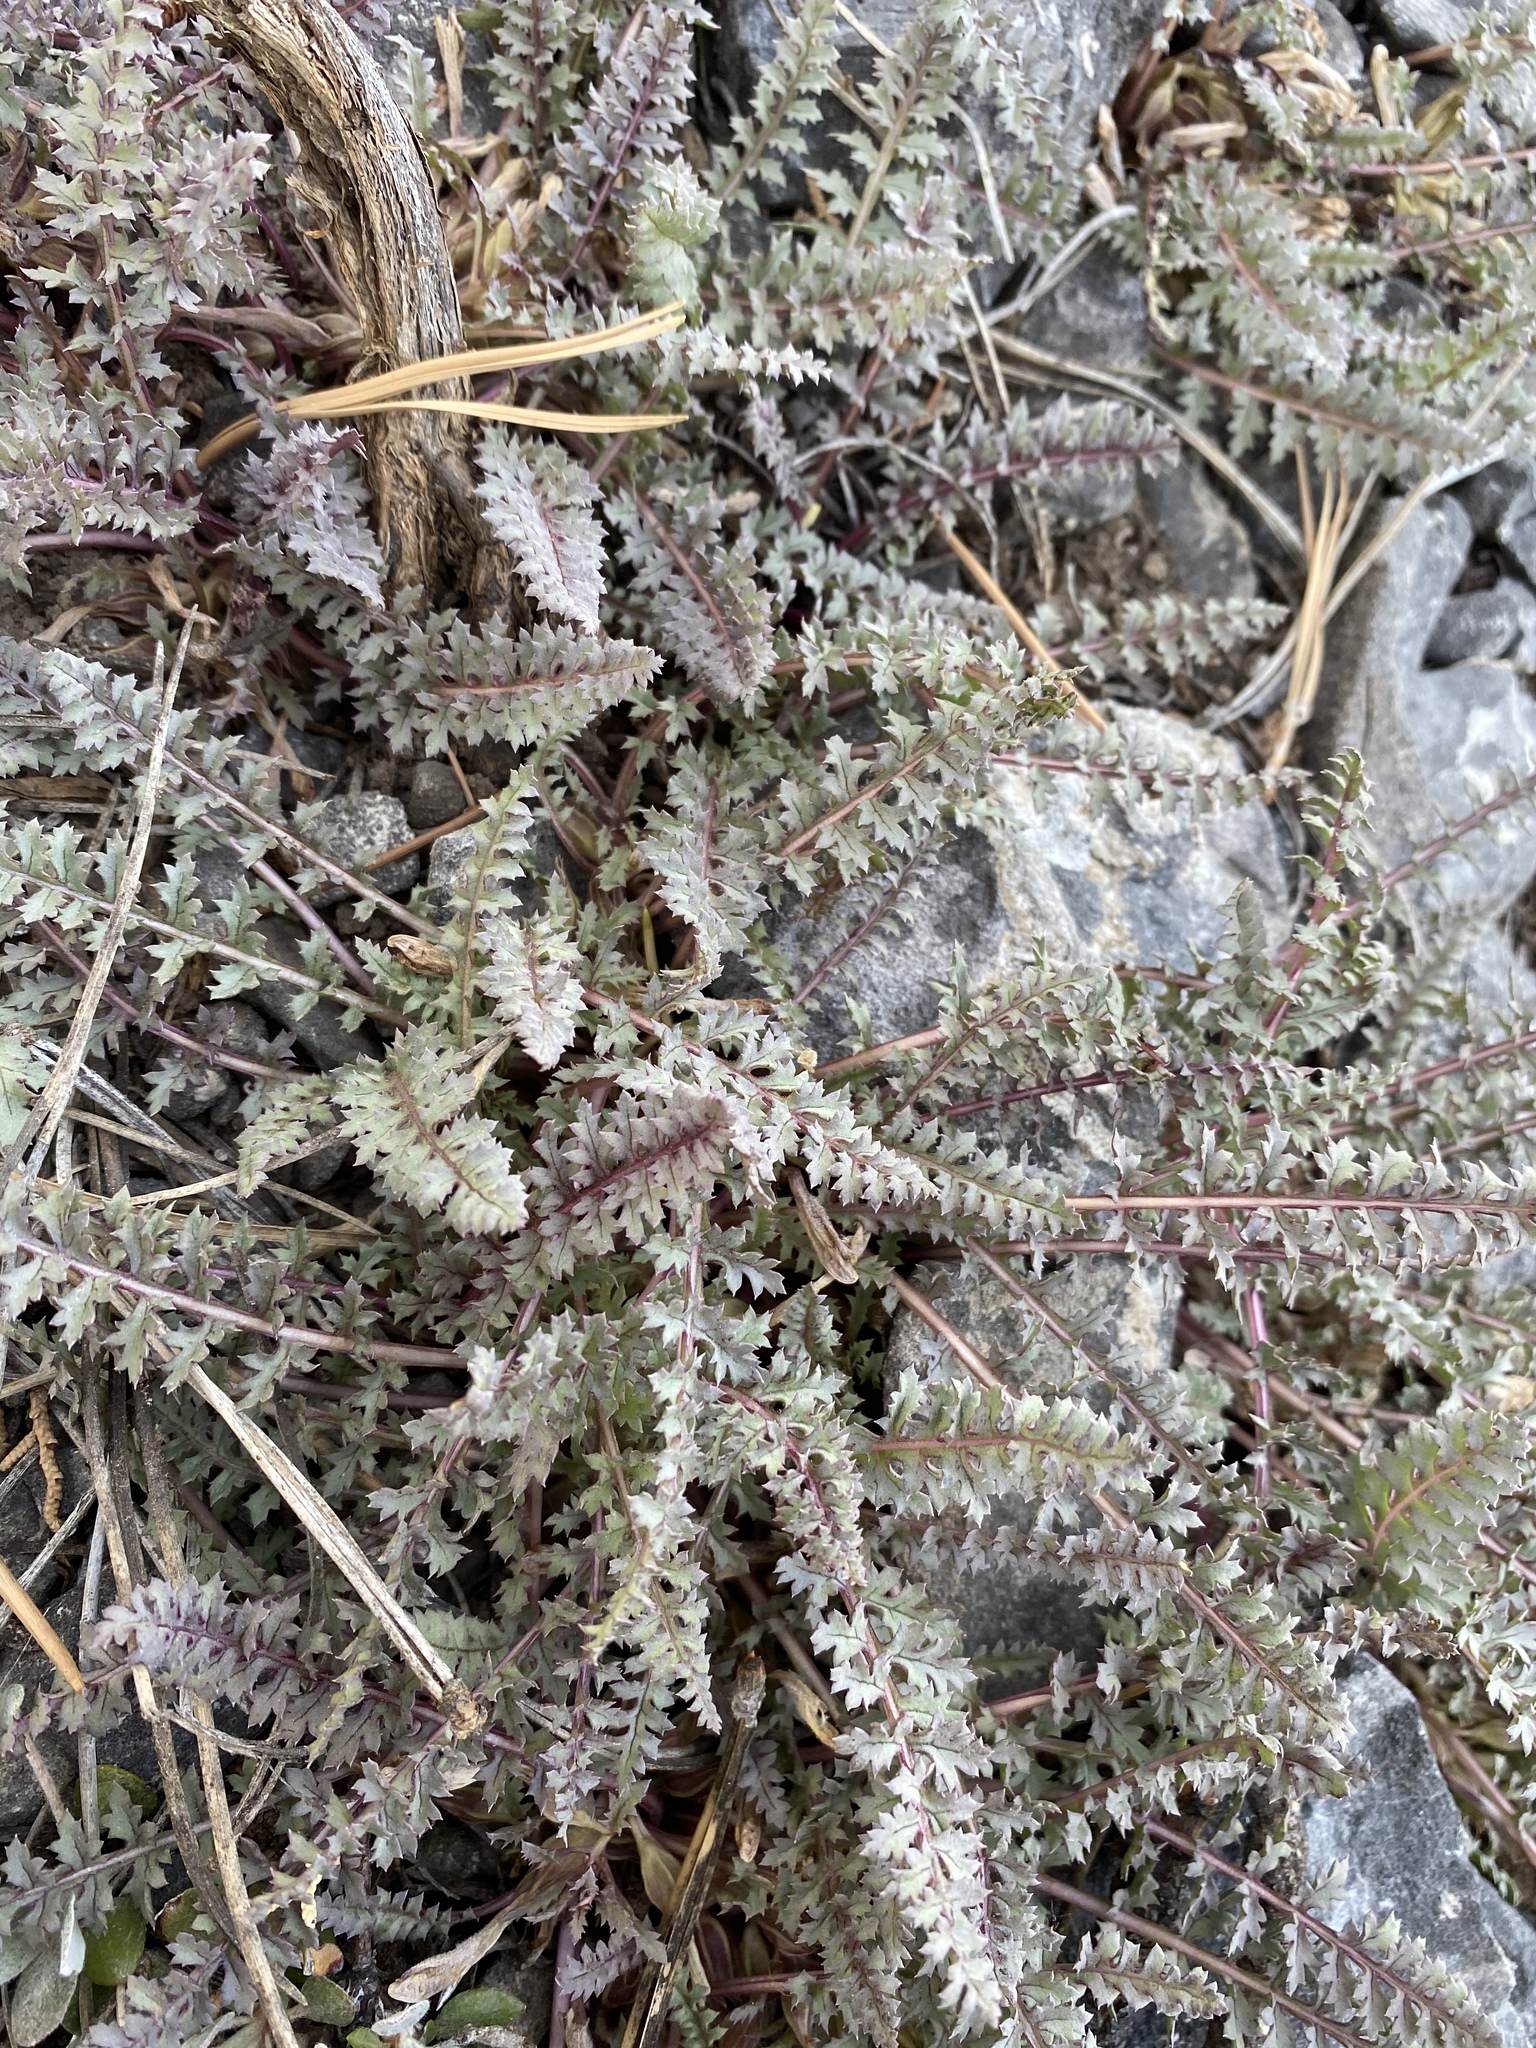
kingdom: Plantae
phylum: Tracheophyta
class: Magnoliopsida
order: Lamiales
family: Orobanchaceae
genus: Pedicularis
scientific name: Pedicularis semibarbata
